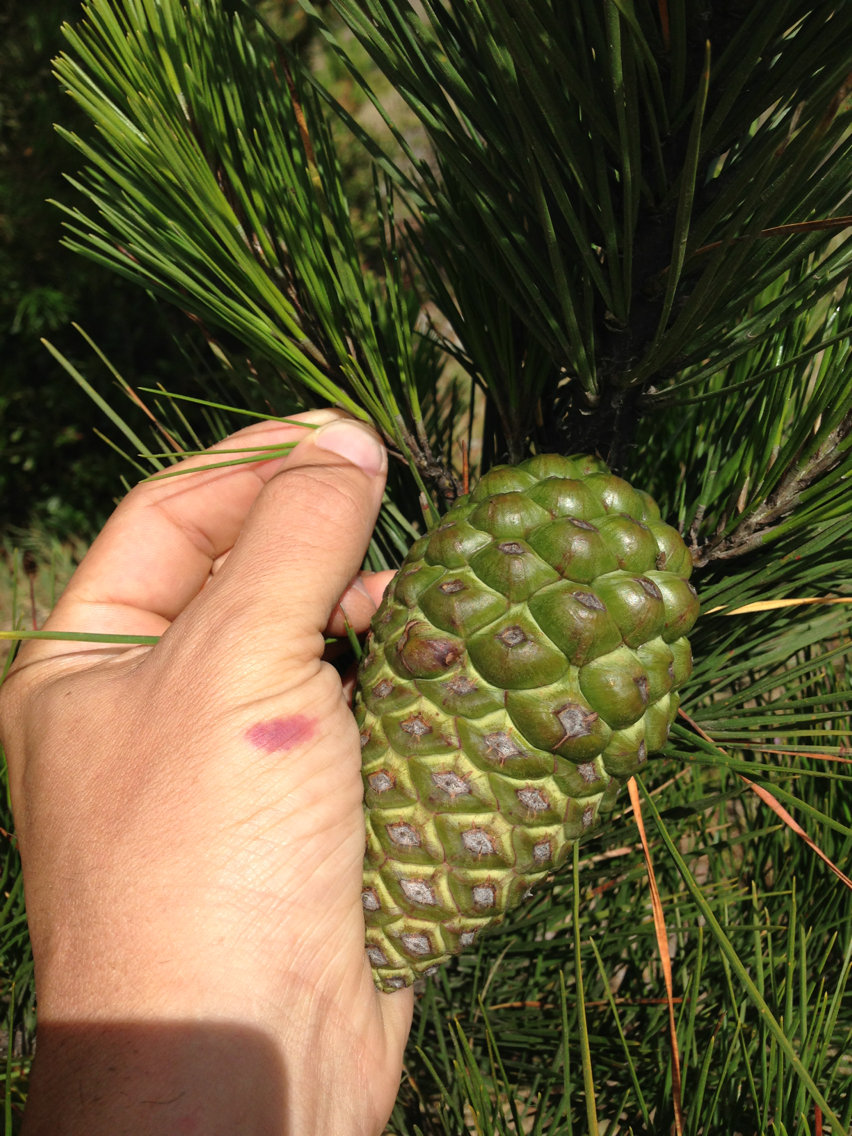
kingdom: Plantae
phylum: Tracheophyta
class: Pinopsida
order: Pinales
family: Pinaceae
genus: Pinus
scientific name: Pinus radiata
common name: Monterey pine
